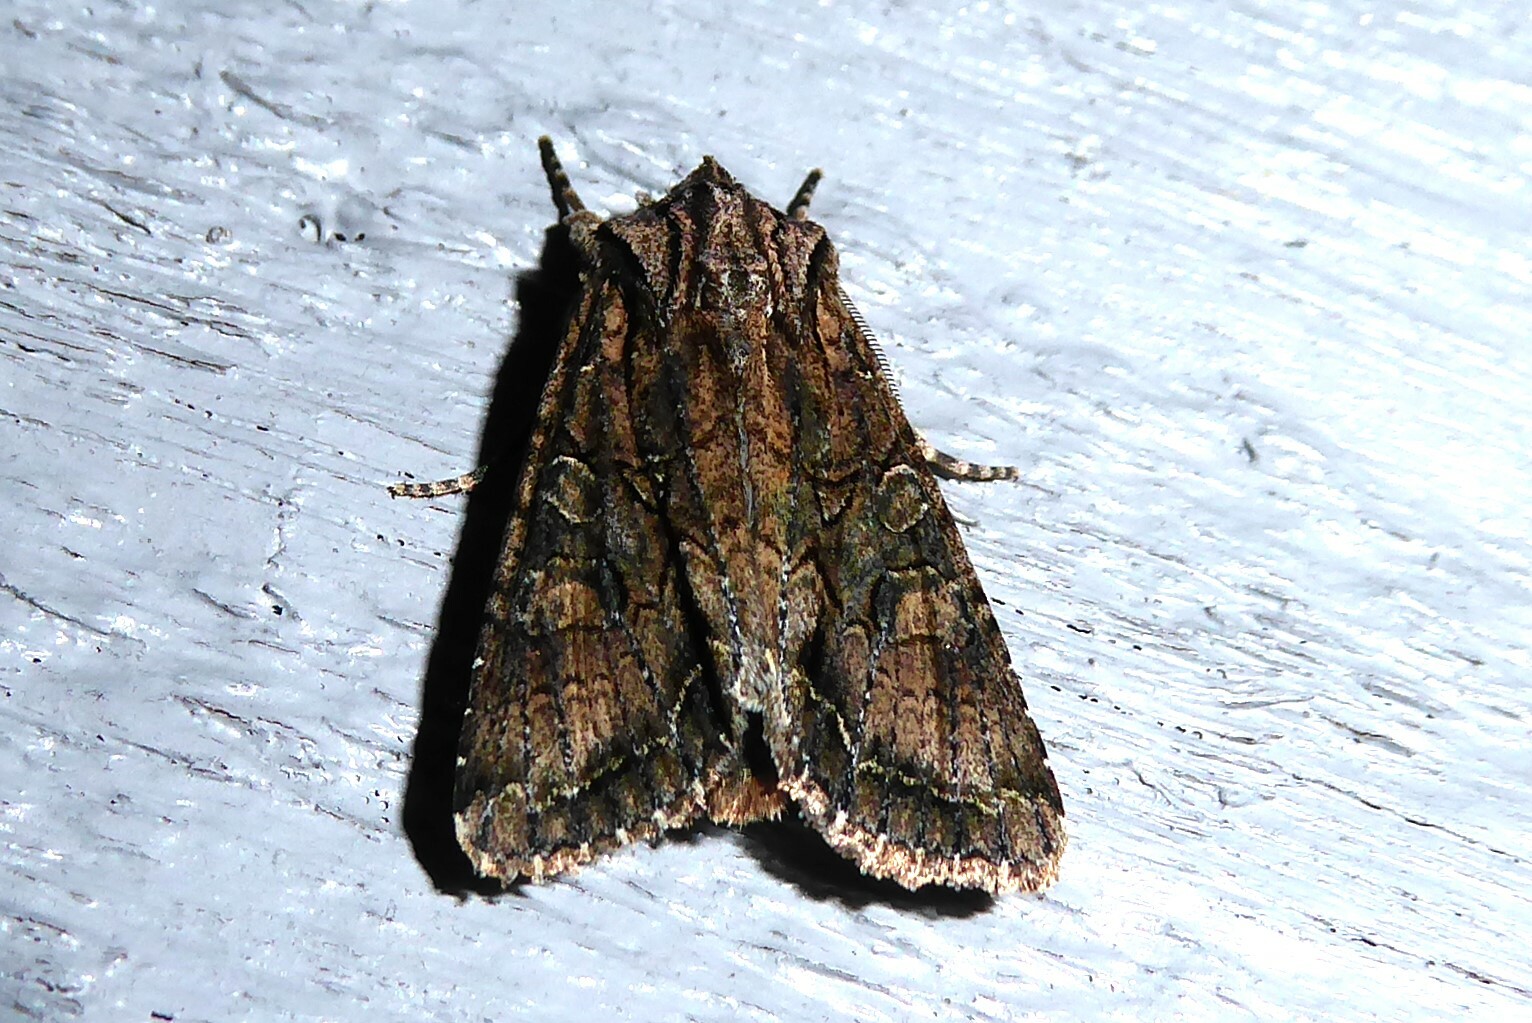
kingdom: Animalia
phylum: Arthropoda
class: Insecta
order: Lepidoptera
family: Noctuidae
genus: Ichneutica
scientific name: Ichneutica mutans
